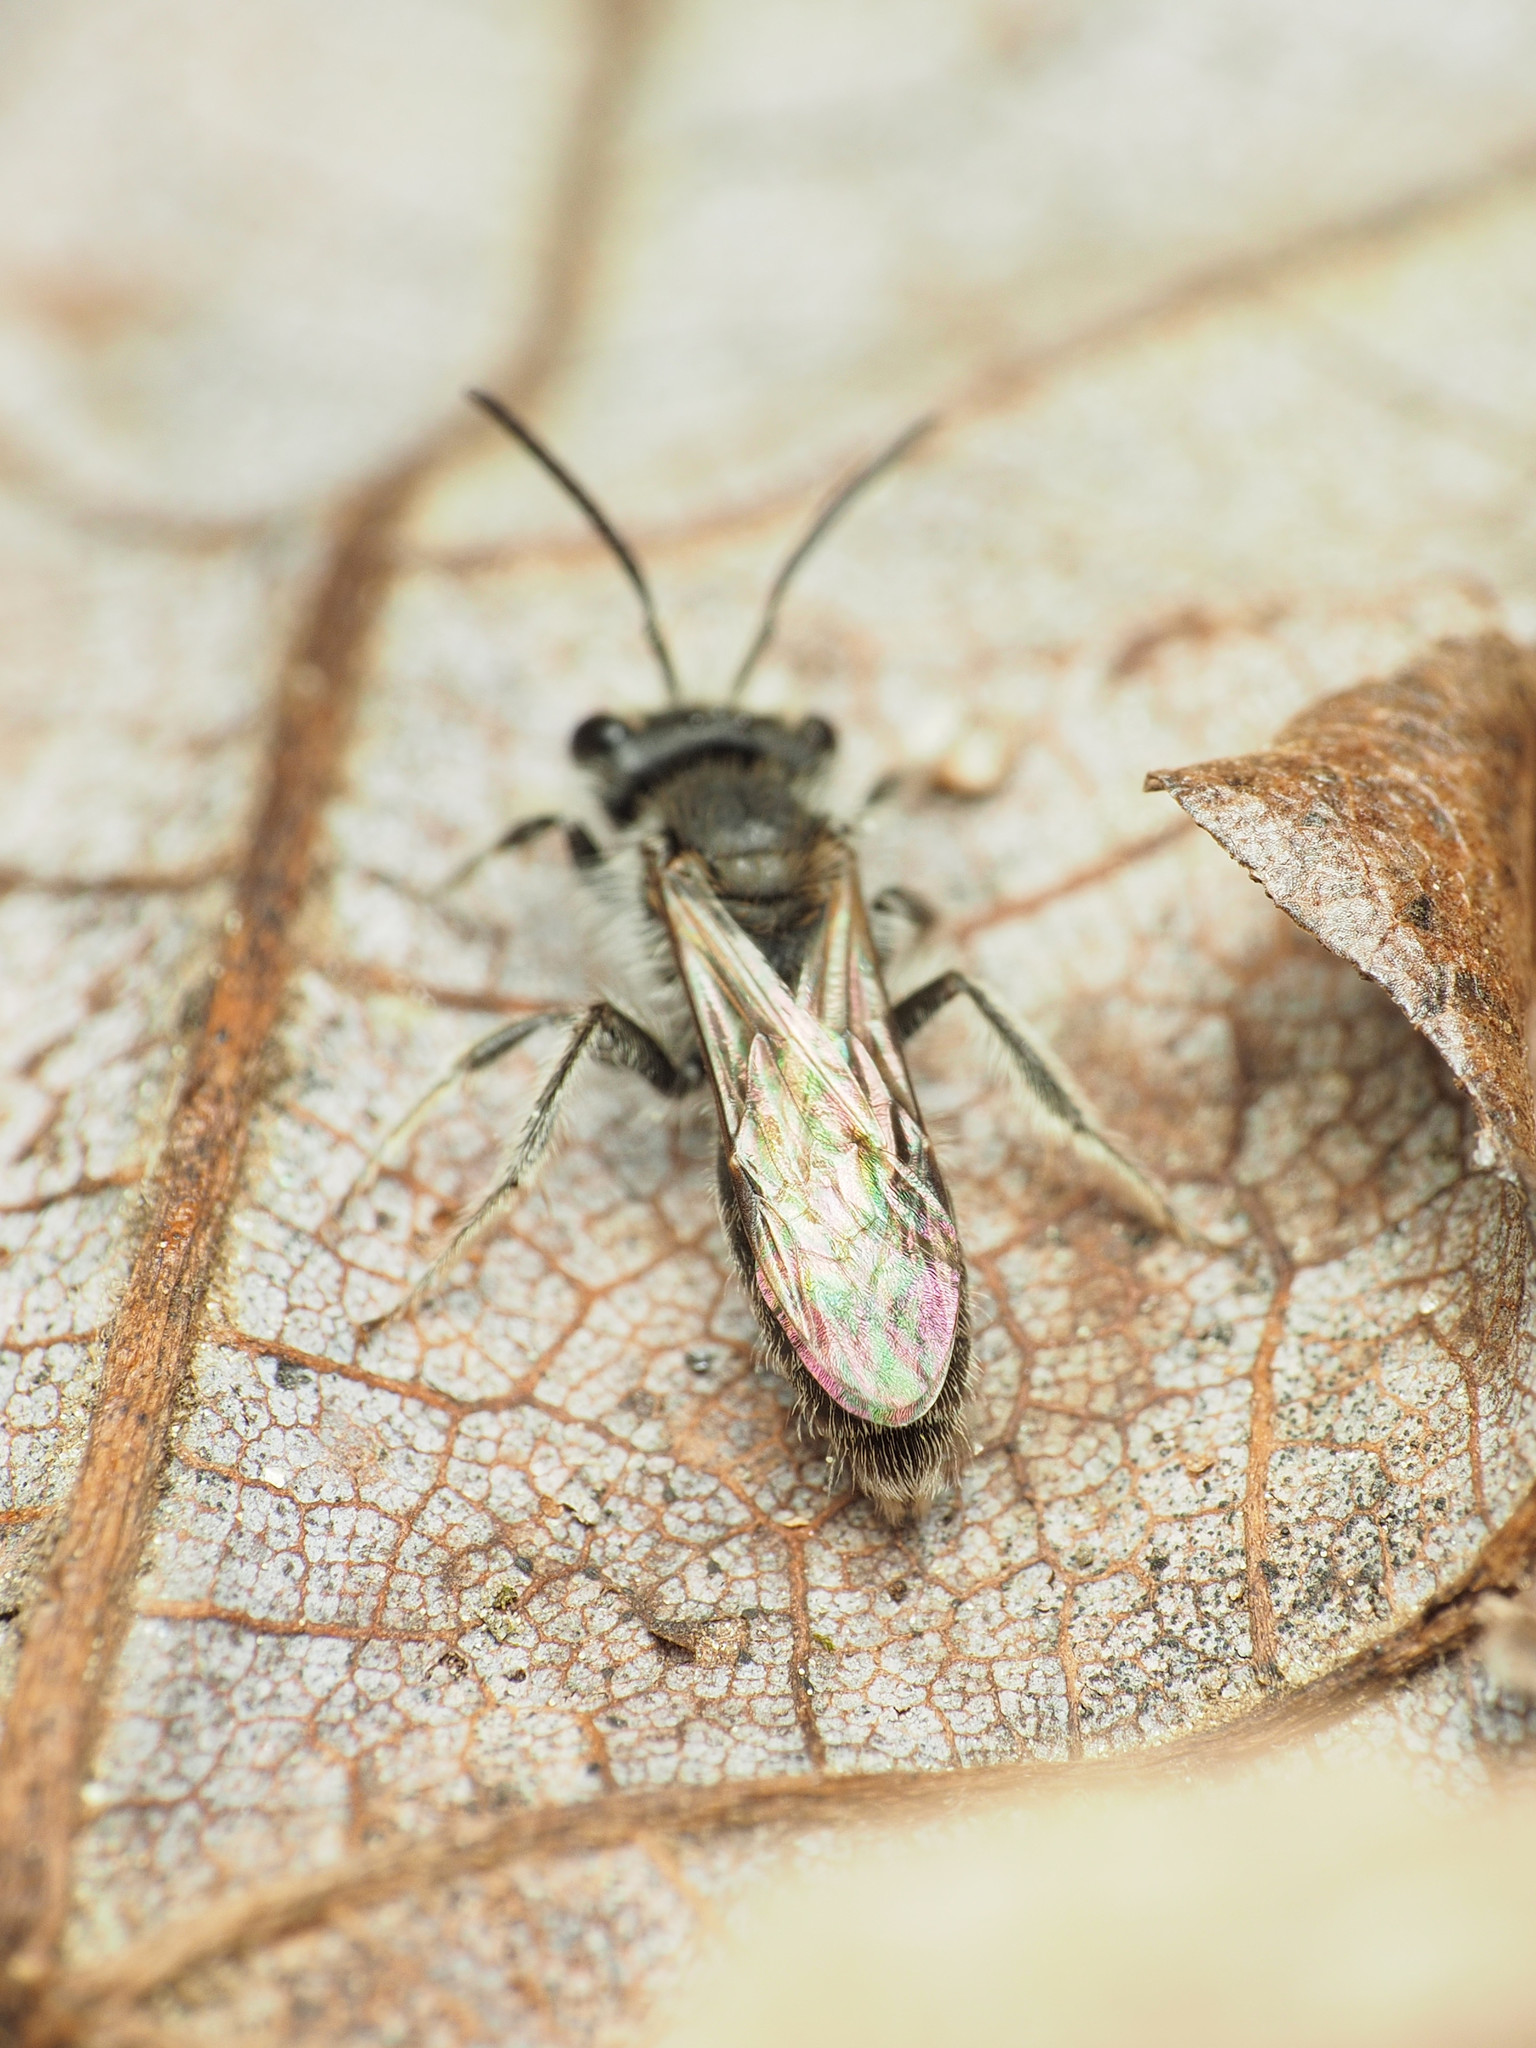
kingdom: Animalia
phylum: Arthropoda
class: Insecta
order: Hymenoptera
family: Andrenidae
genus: Andrena
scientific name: Andrena erigeniae
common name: Spring beauty miner
